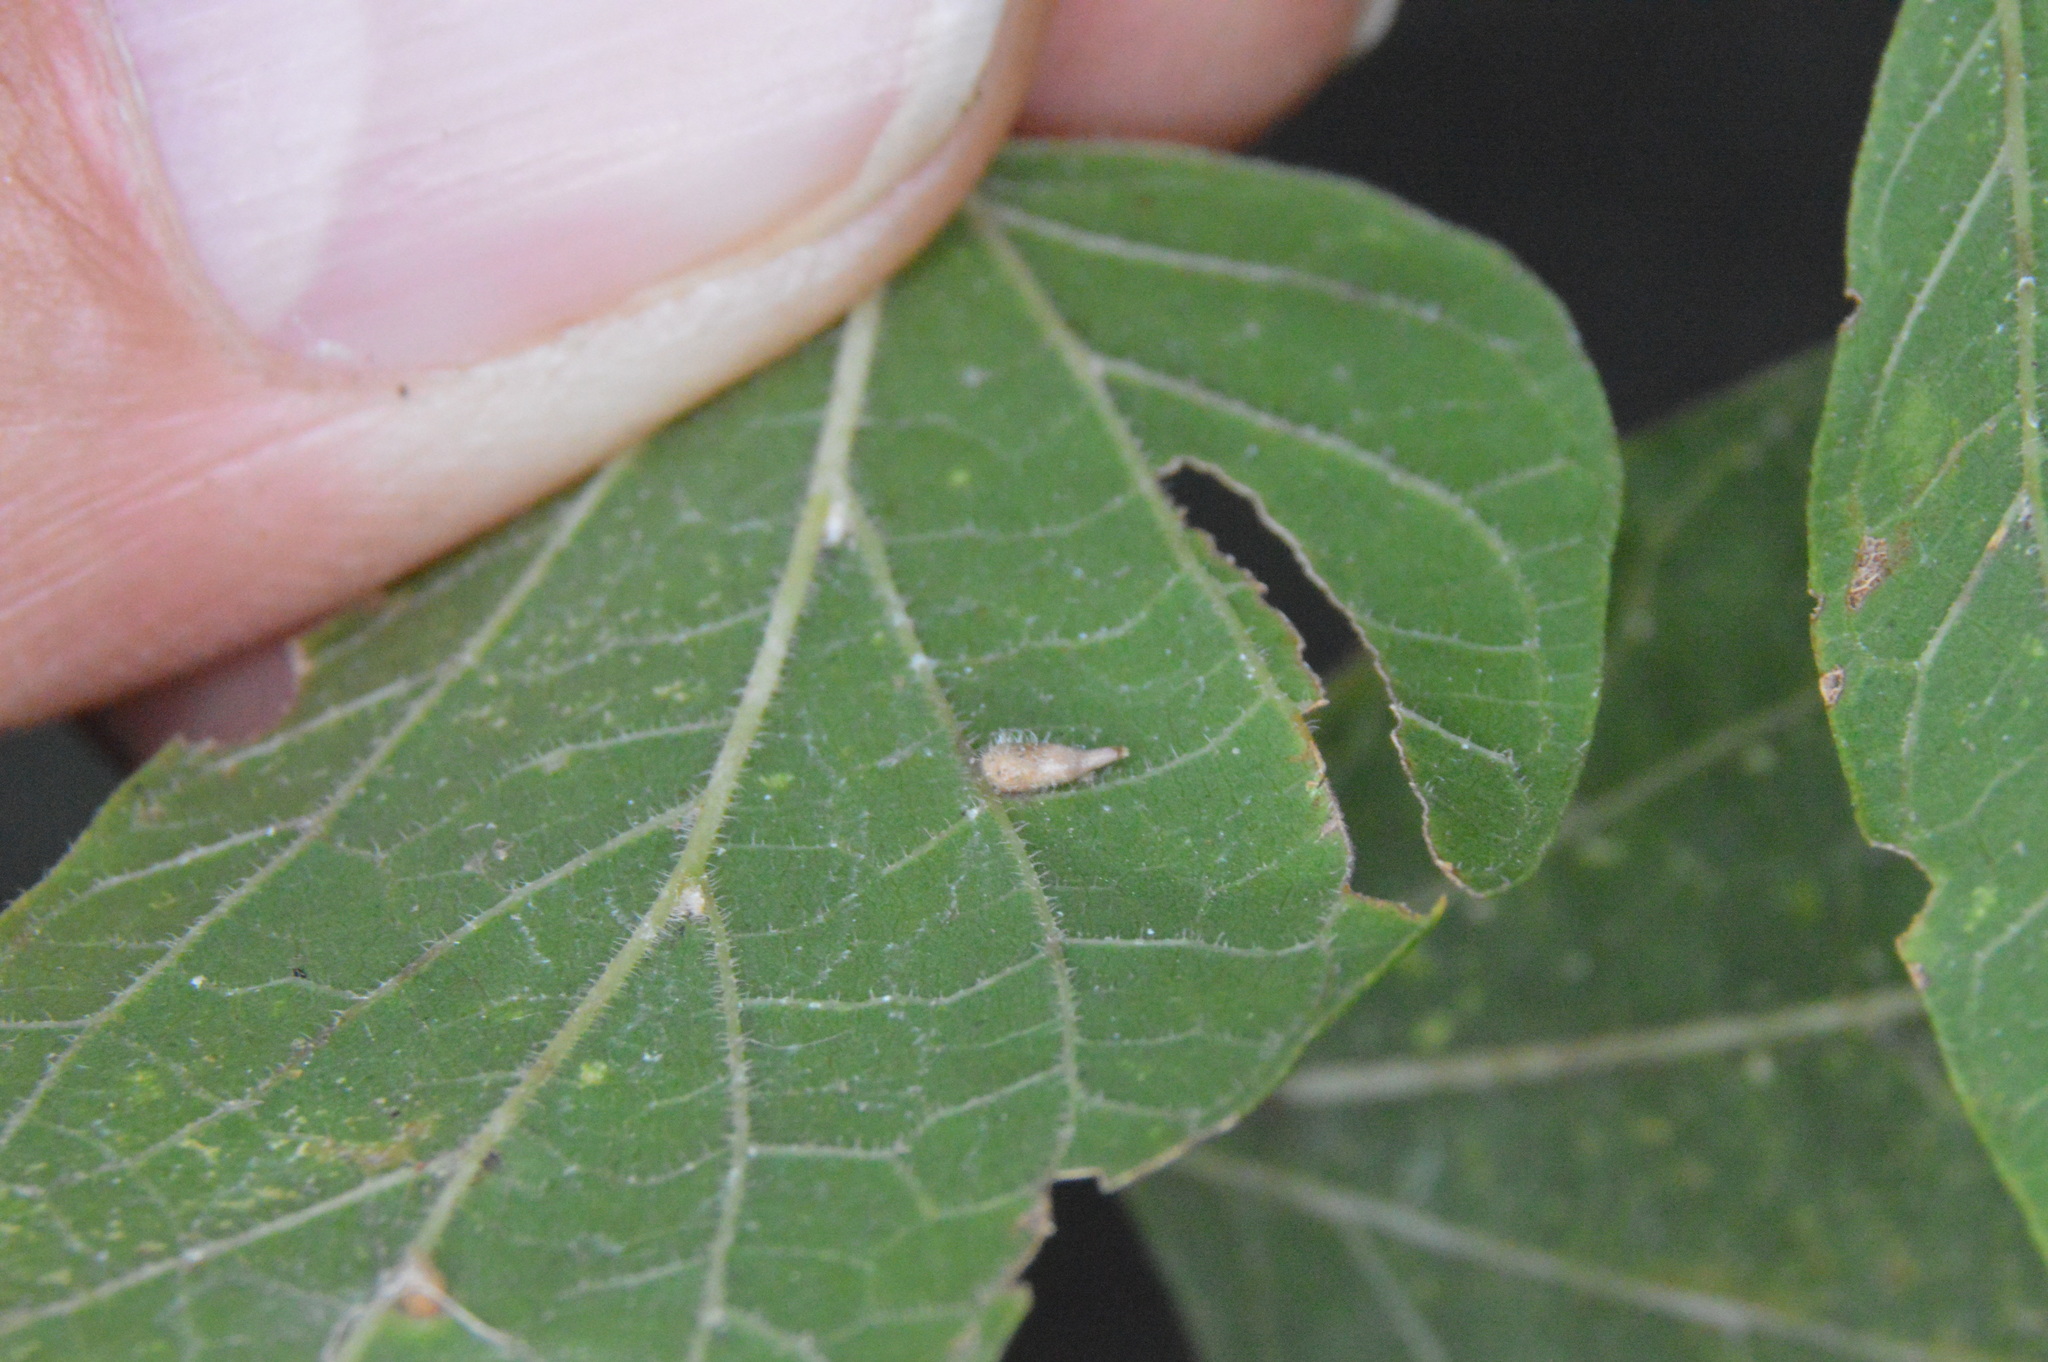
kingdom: Animalia
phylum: Arthropoda
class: Insecta
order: Diptera
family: Cecidomyiidae
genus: Celticecis
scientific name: Celticecis supina
